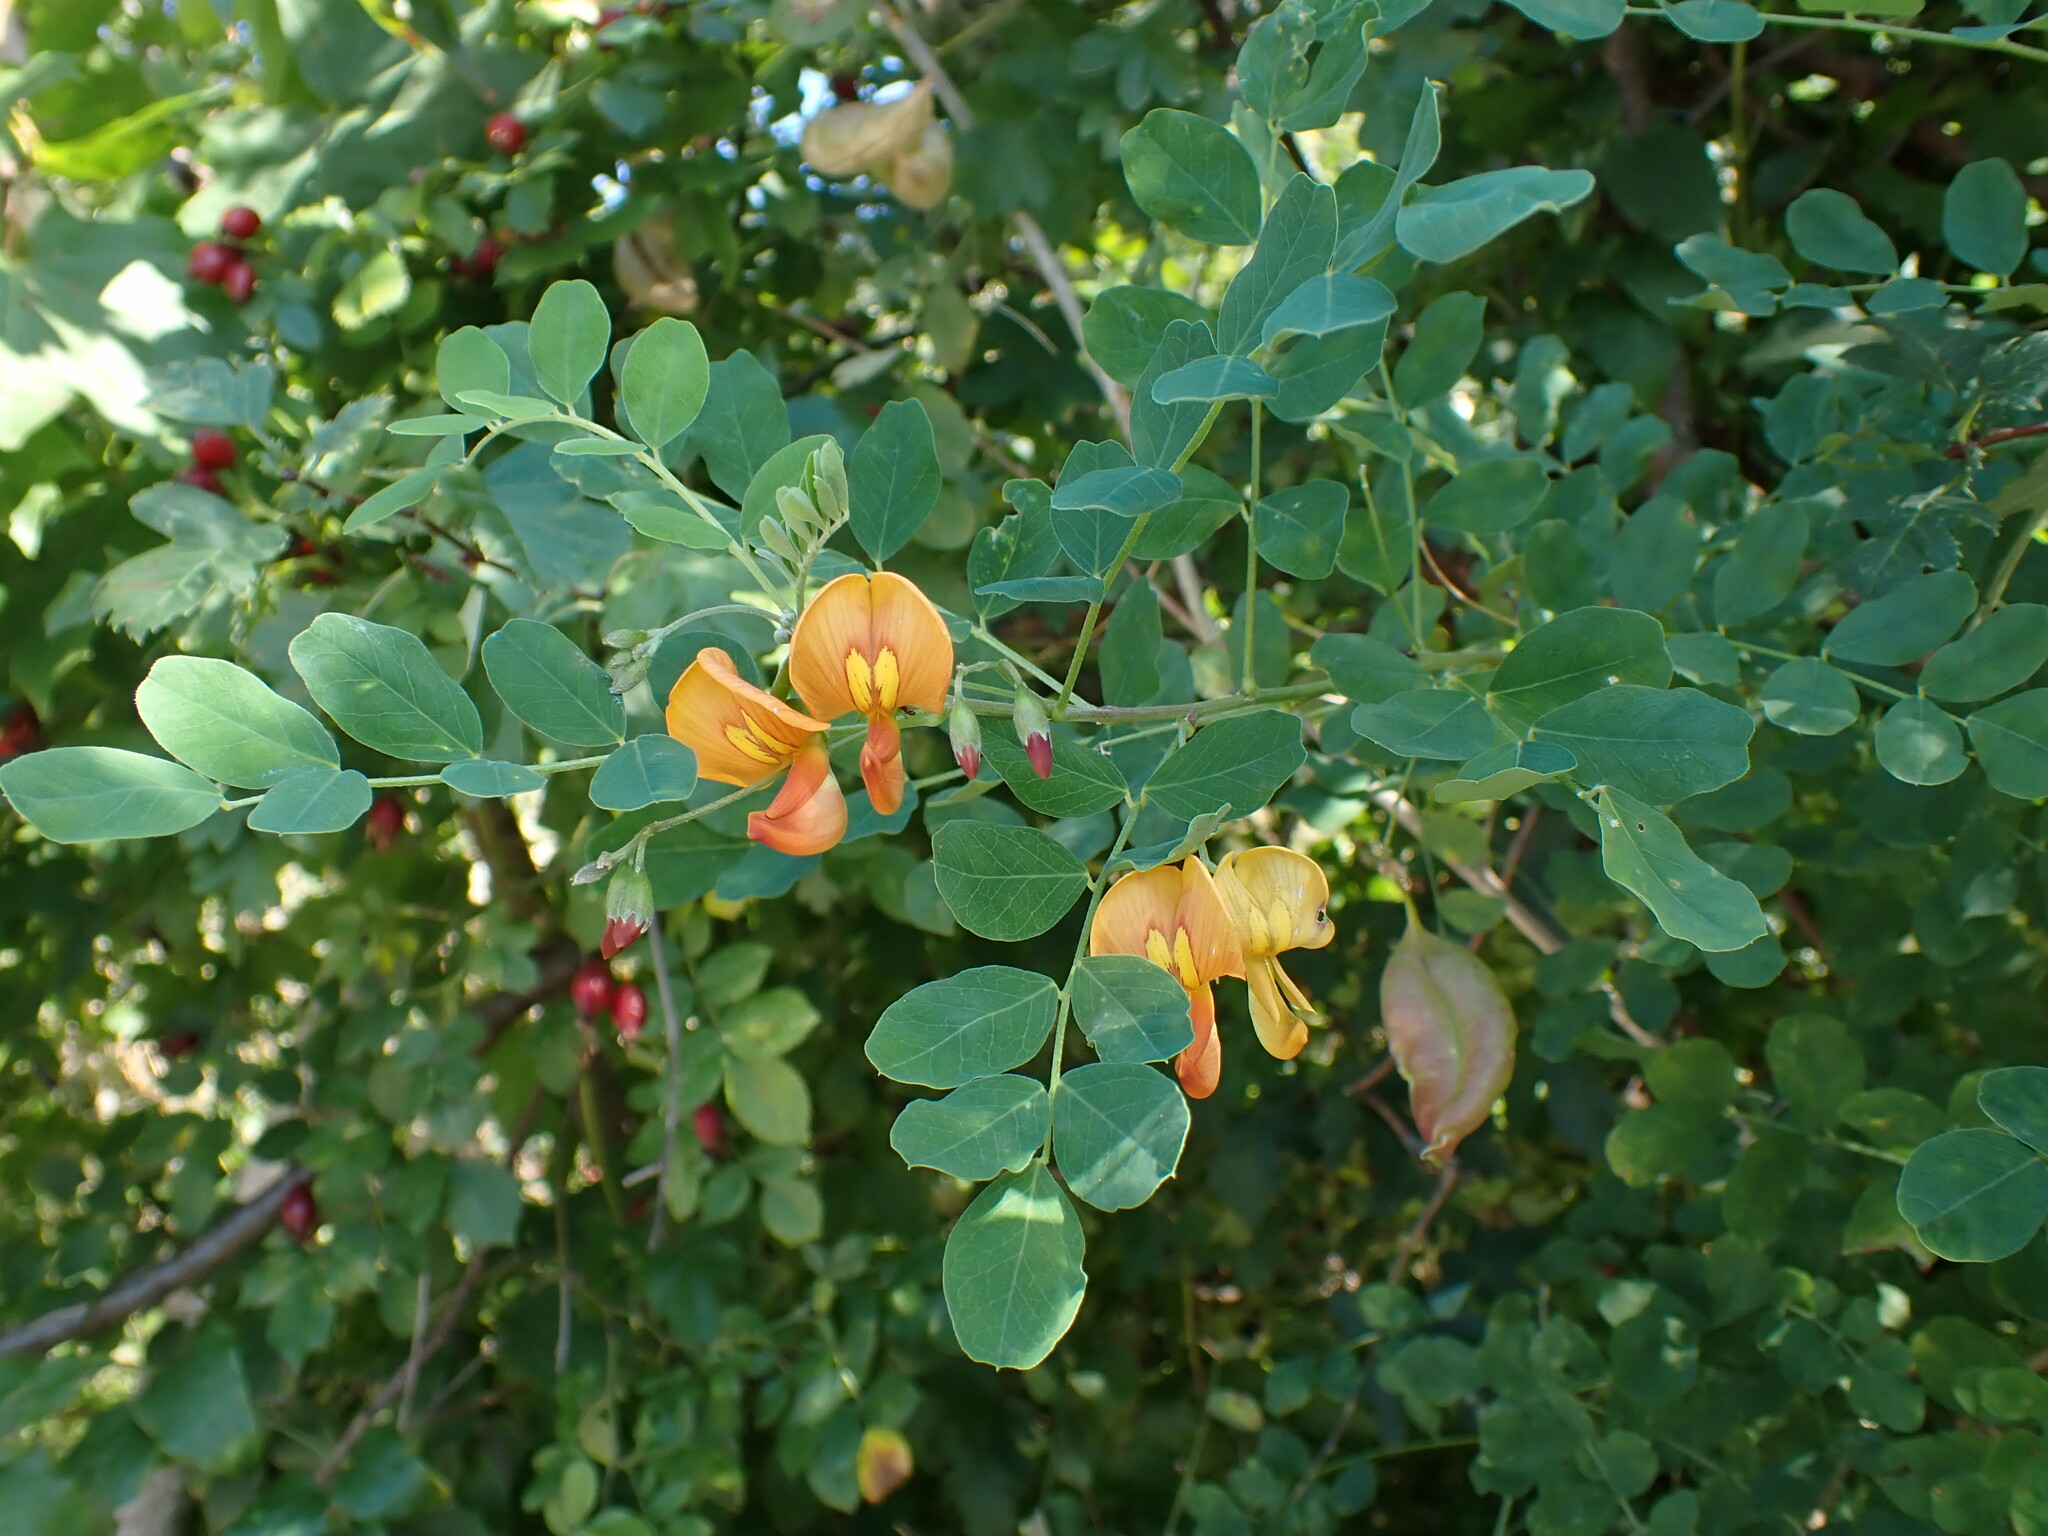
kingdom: Plantae
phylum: Tracheophyta
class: Magnoliopsida
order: Fabales
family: Fabaceae
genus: Colutea
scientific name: Colutea media
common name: Orange bladder-senna
